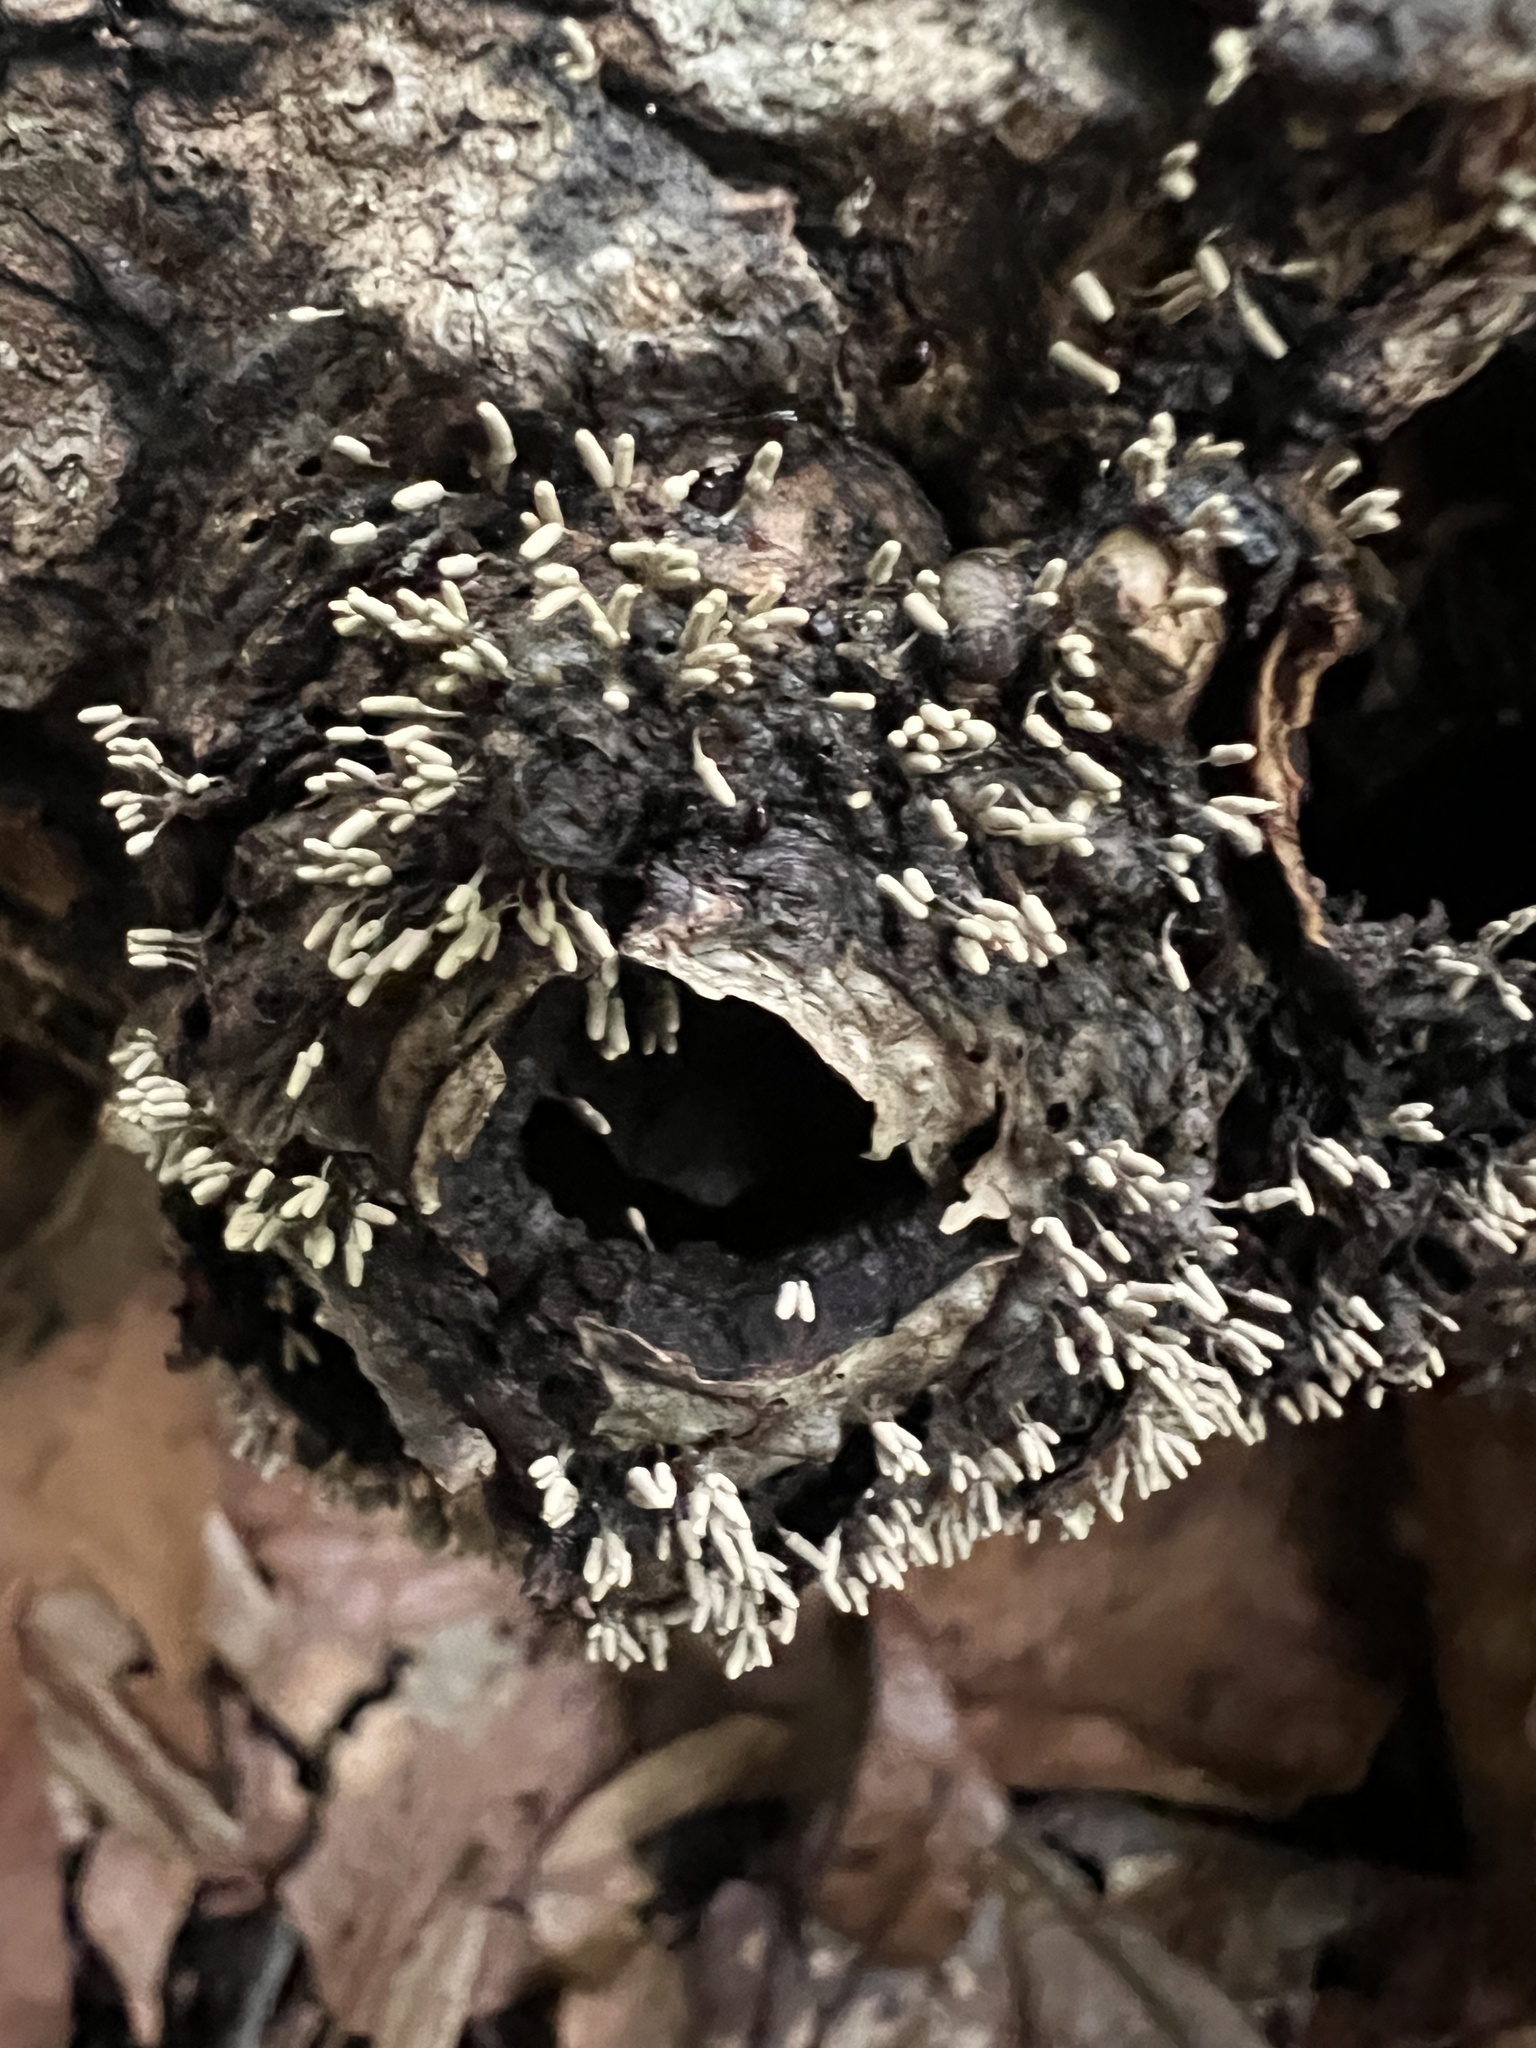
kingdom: Protozoa
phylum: Mycetozoa
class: Myxomycetes
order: Trichiales
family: Arcyriaceae
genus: Arcyria
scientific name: Arcyria cinerea
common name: White carnival candy slime mold
